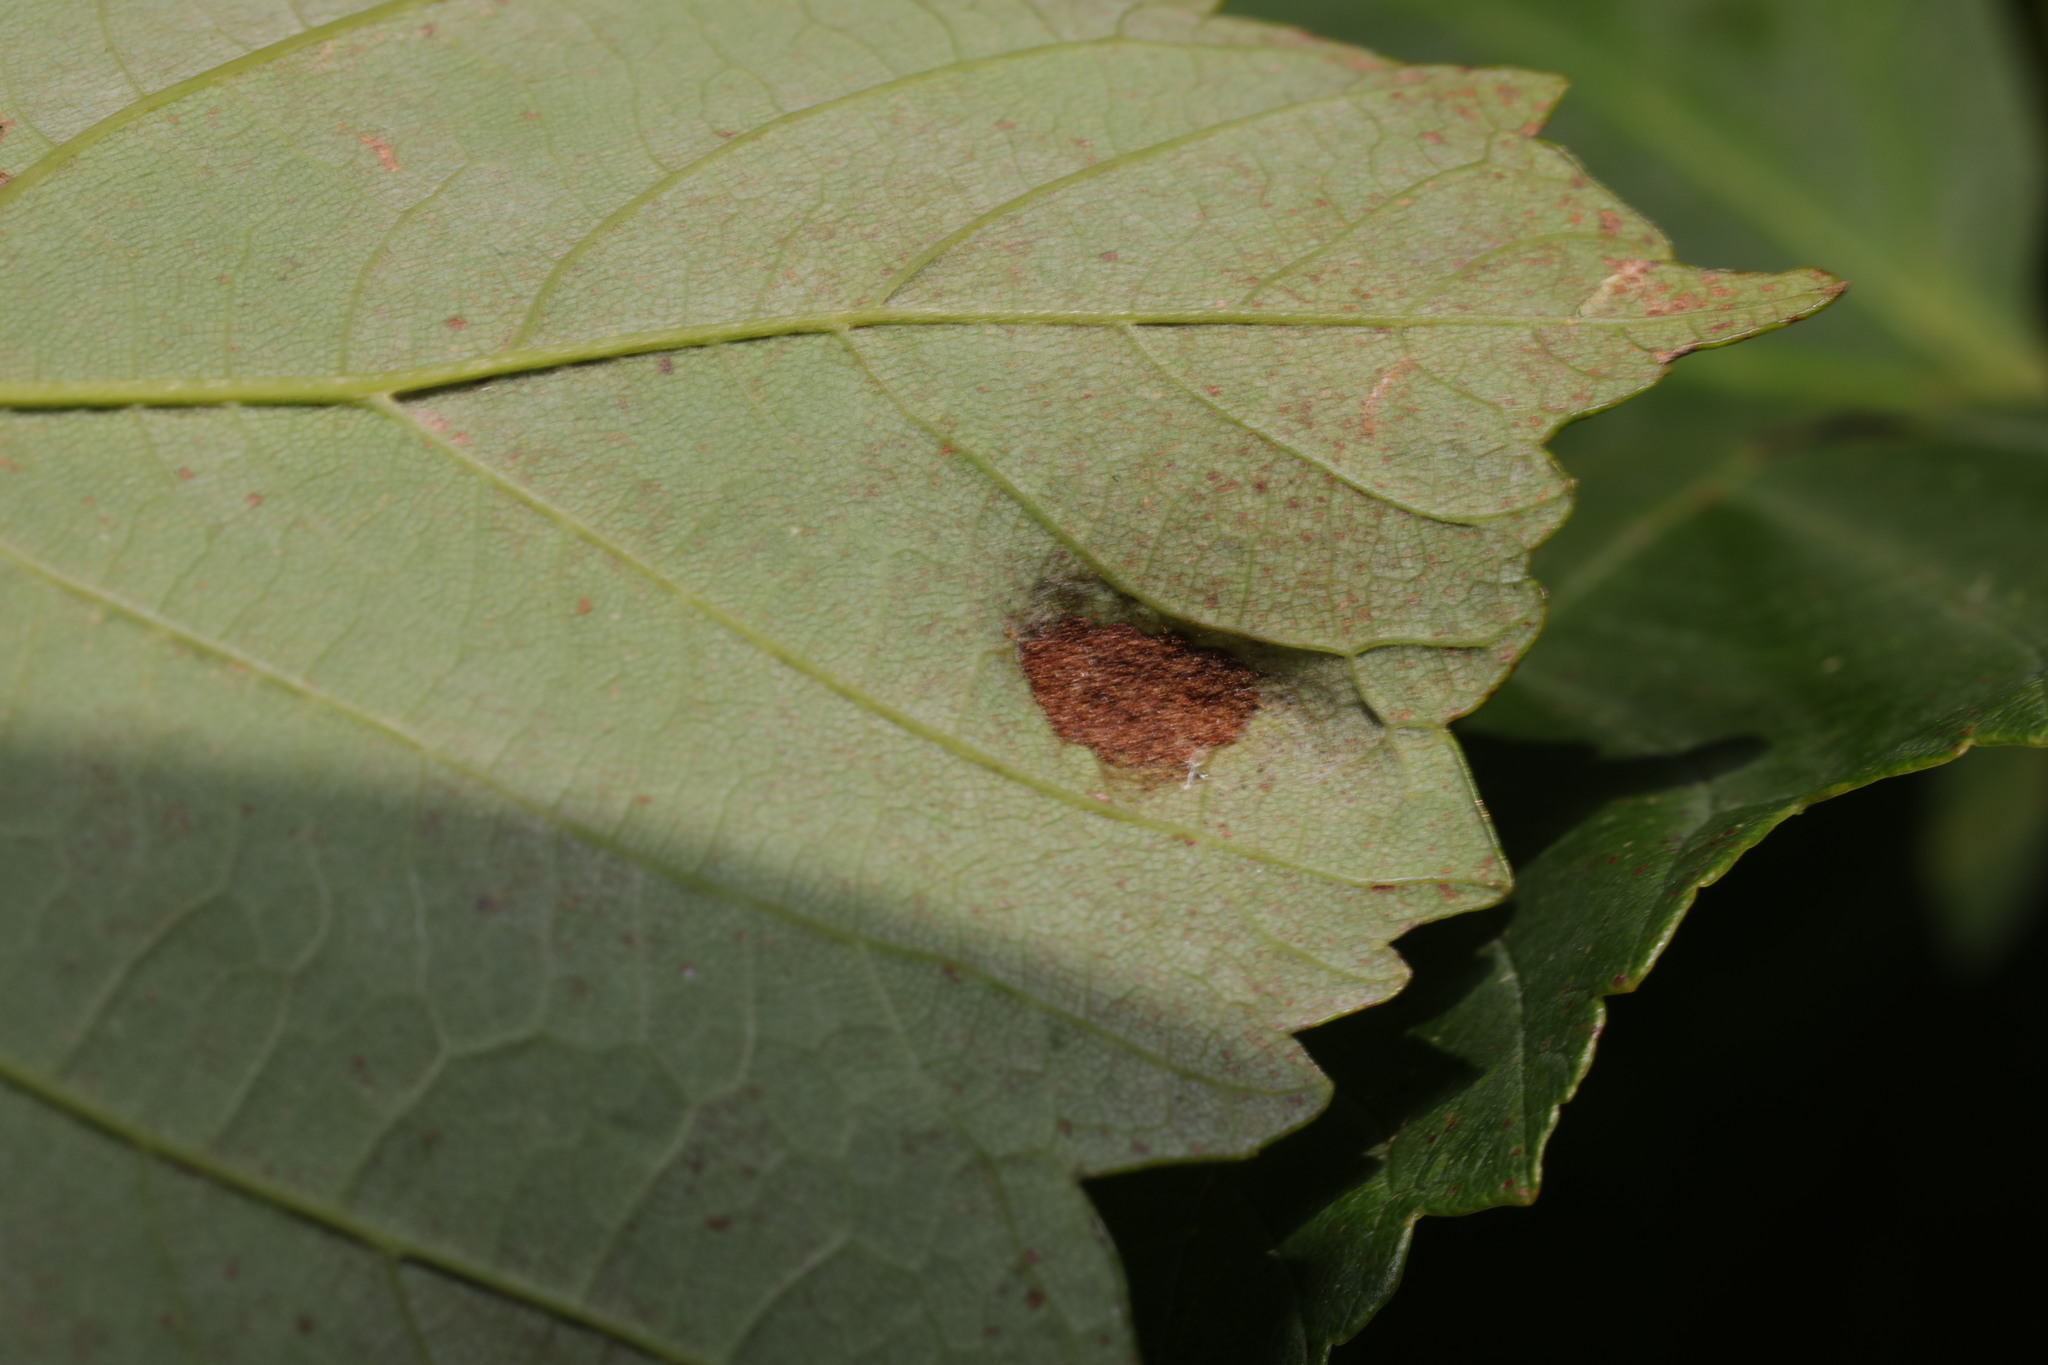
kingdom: Animalia
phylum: Arthropoda
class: Arachnida
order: Trombidiformes
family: Eriophyidae
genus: Aceria
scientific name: Aceria pseudoplatani
